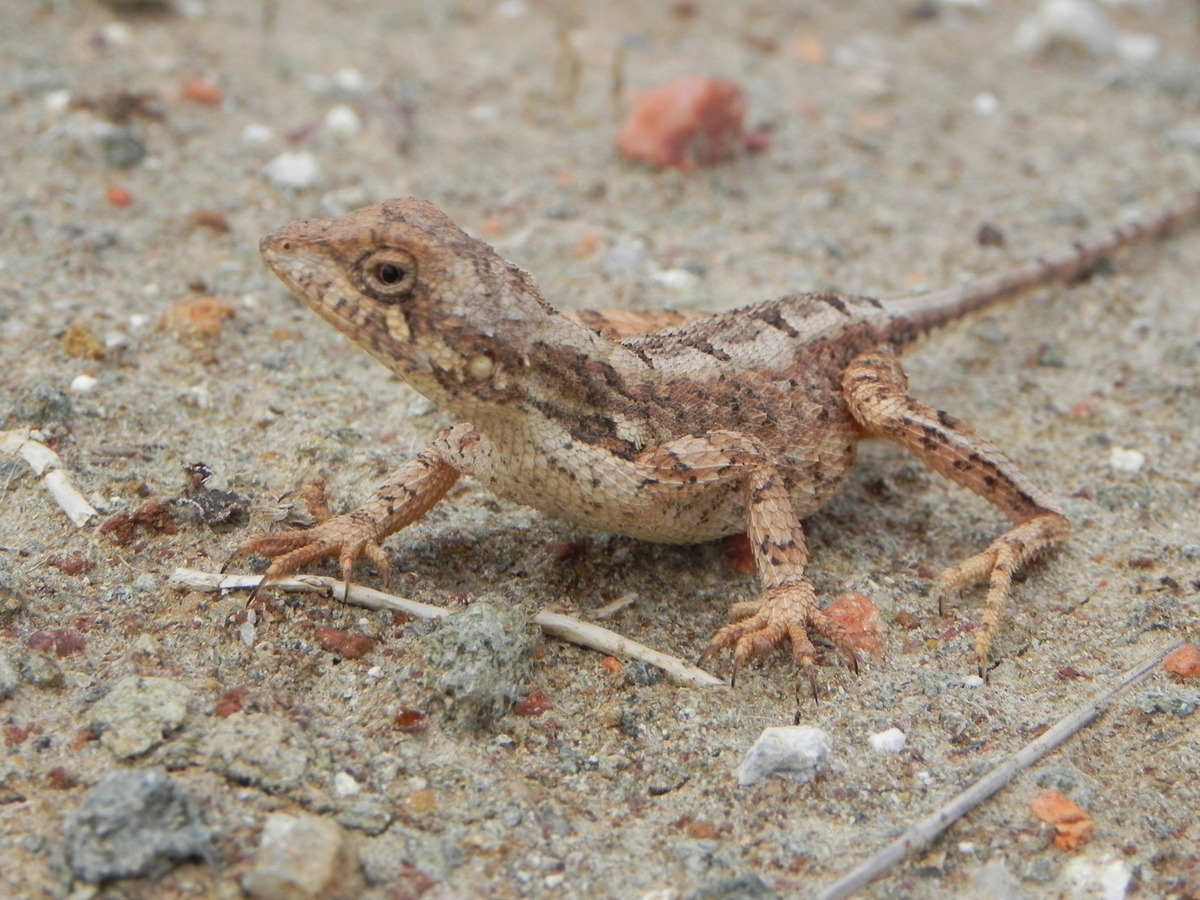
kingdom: Animalia
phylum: Chordata
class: Squamata
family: Agamidae
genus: Sitana
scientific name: Sitana ponticeriana
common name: Pondichéry fan throated lizard
